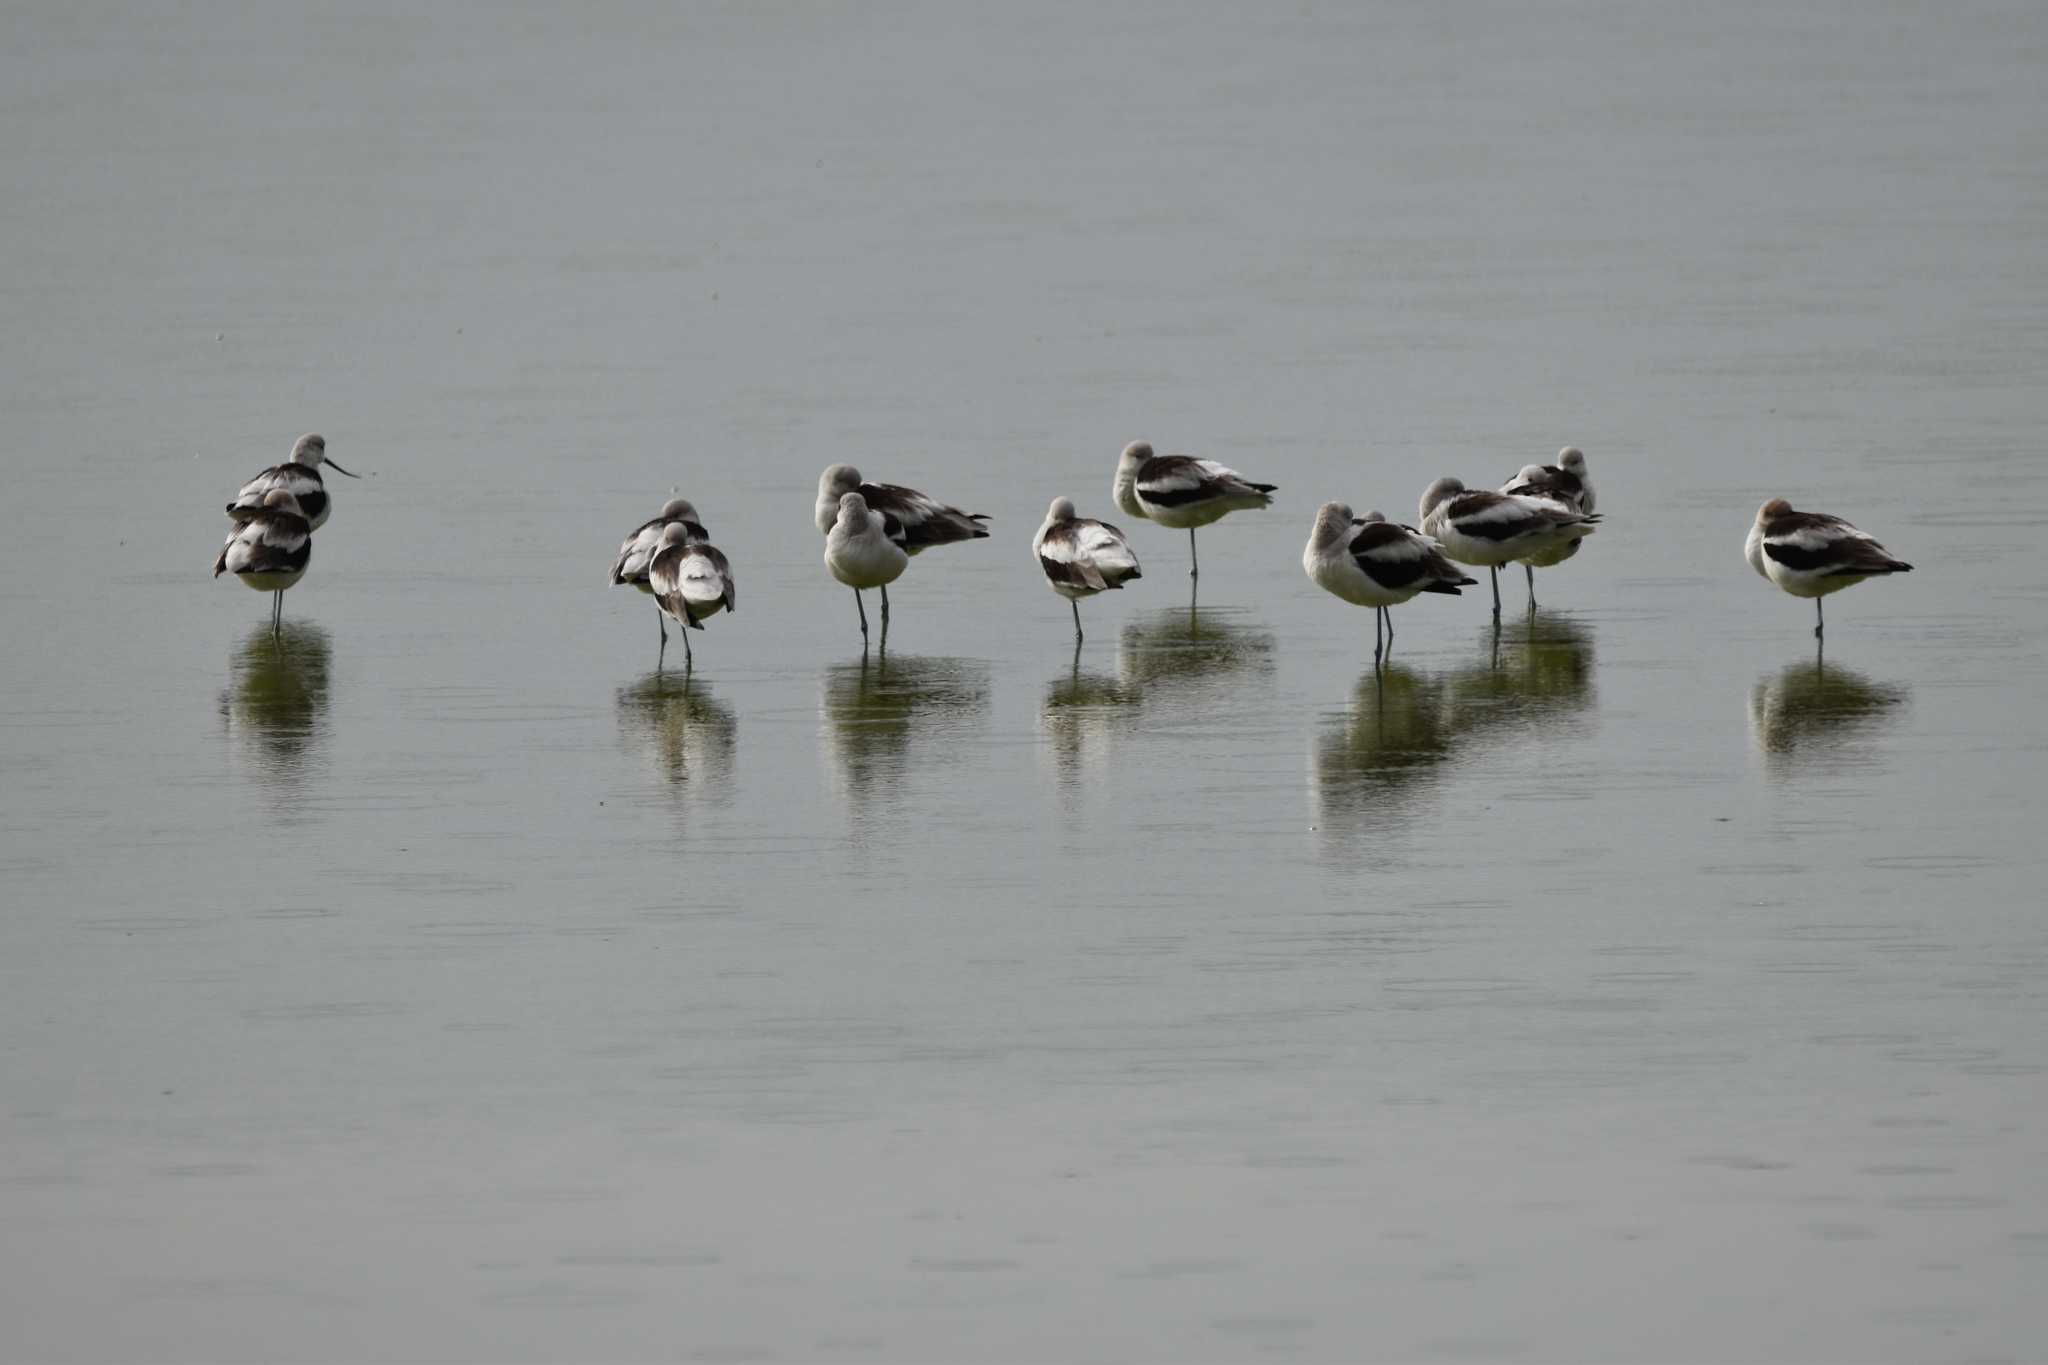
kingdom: Animalia
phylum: Chordata
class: Aves
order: Charadriiformes
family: Recurvirostridae
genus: Recurvirostra
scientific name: Recurvirostra americana
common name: American avocet
